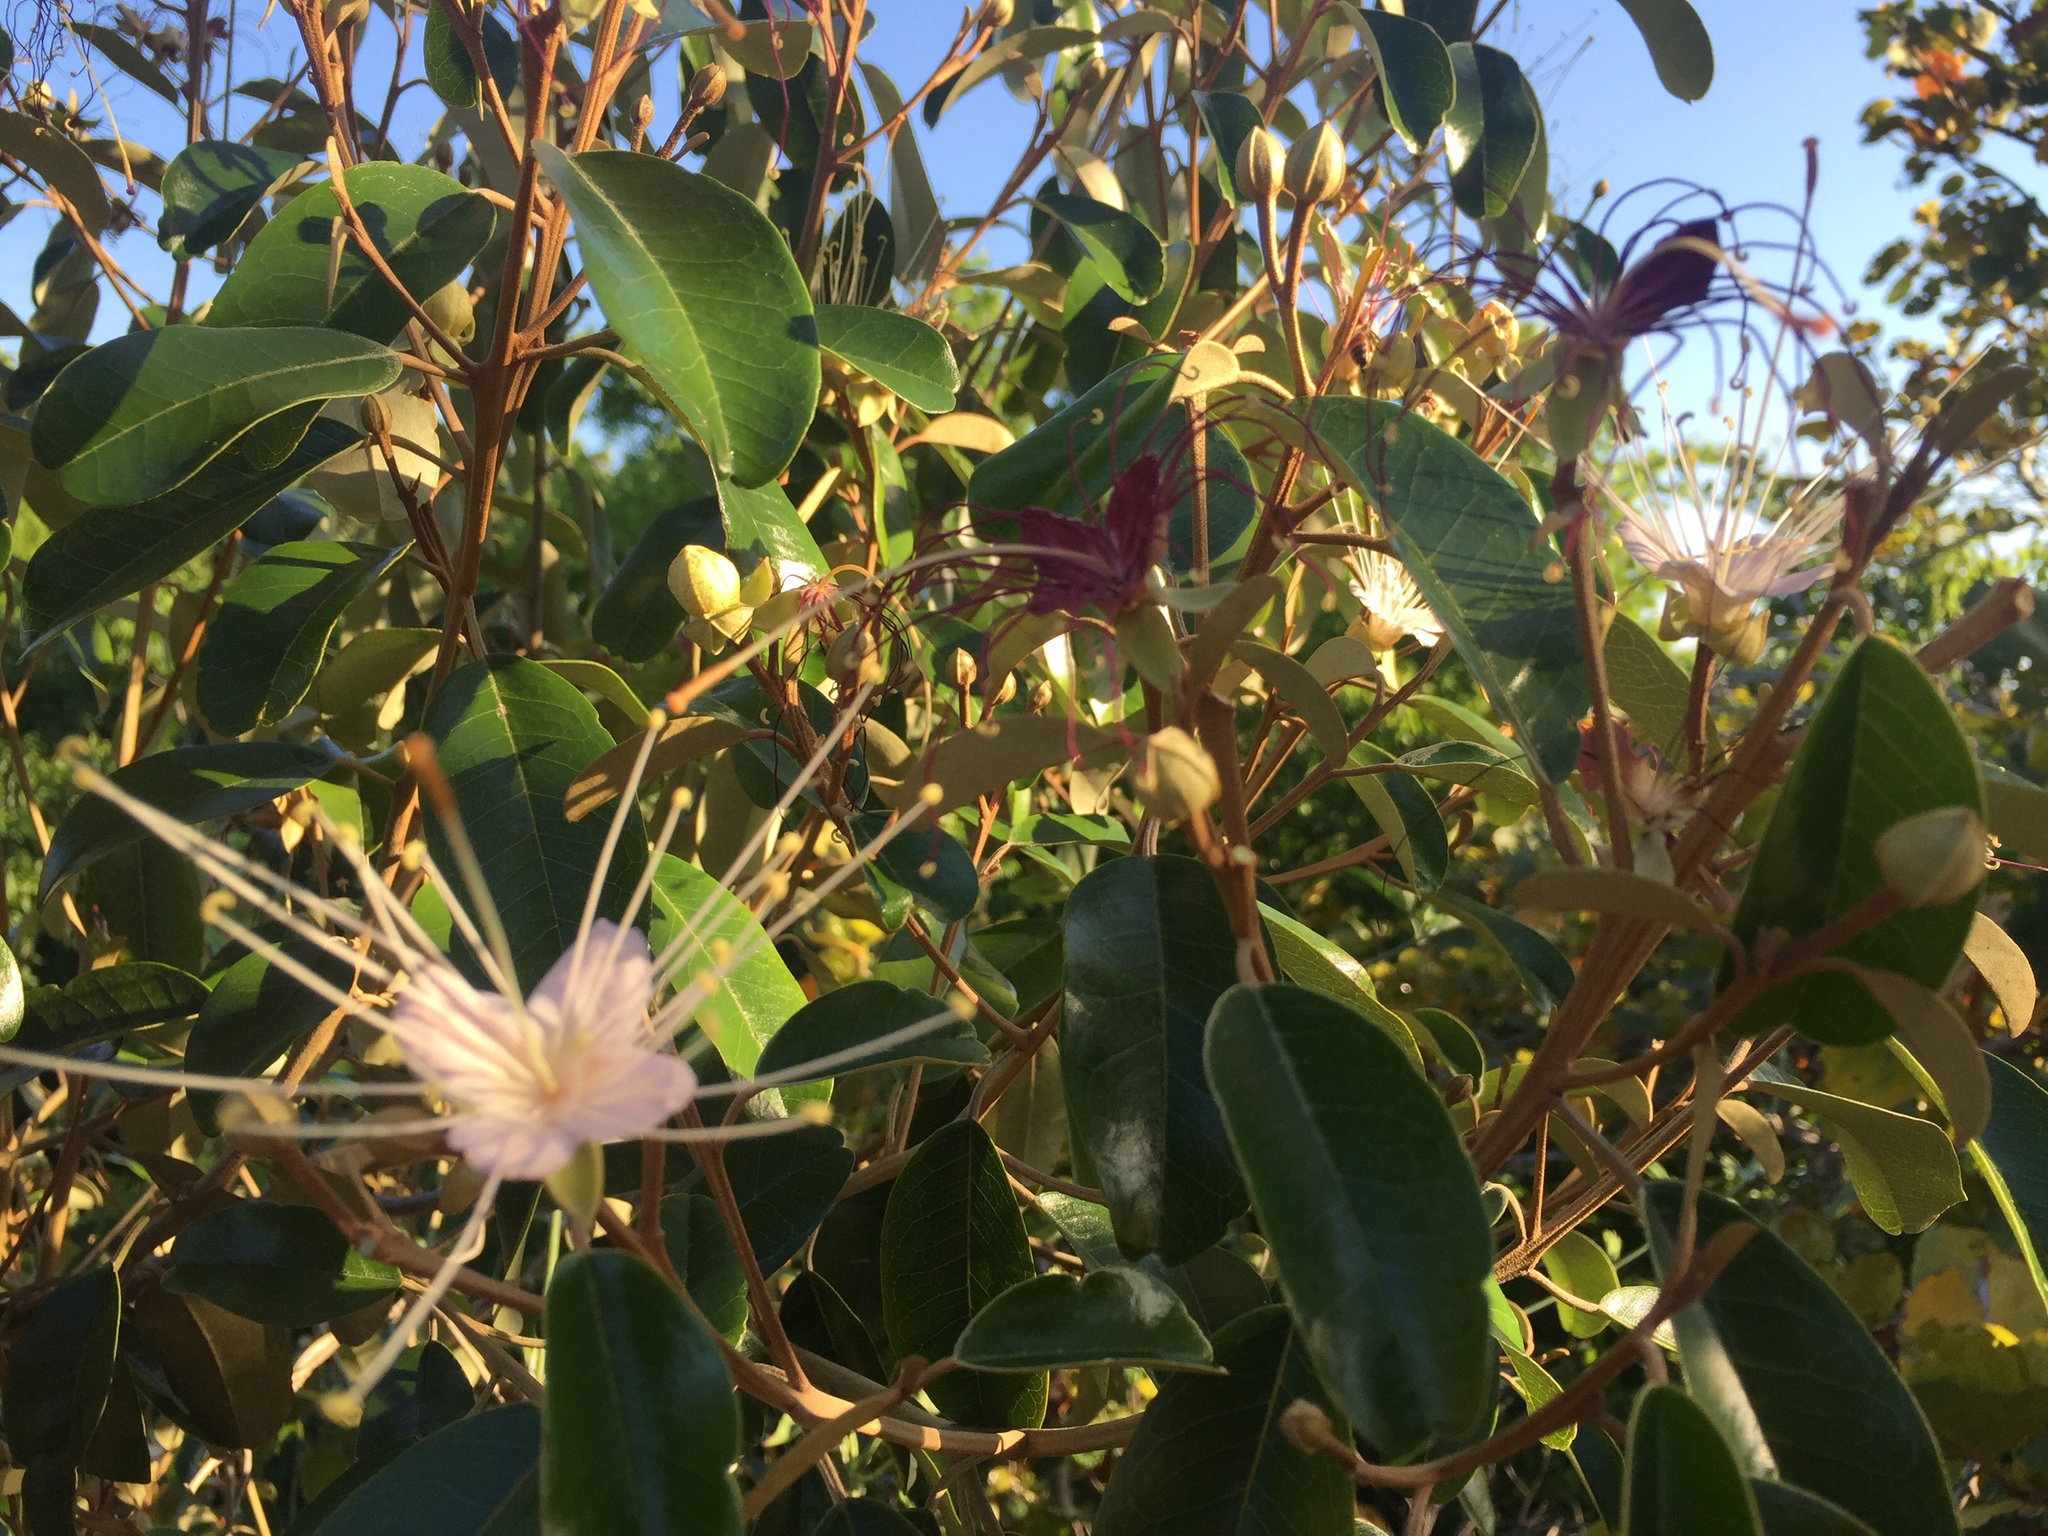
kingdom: Plantae
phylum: Tracheophyta
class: Magnoliopsida
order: Brassicales
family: Capparaceae
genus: Quadrella
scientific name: Quadrella cynophallophora
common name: Black willow
